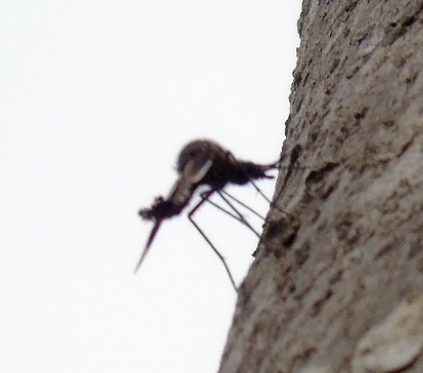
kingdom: Animalia
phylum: Arthropoda
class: Insecta
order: Diptera
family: Bombyliidae
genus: Lepidophora
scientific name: Lepidophora vetusta
